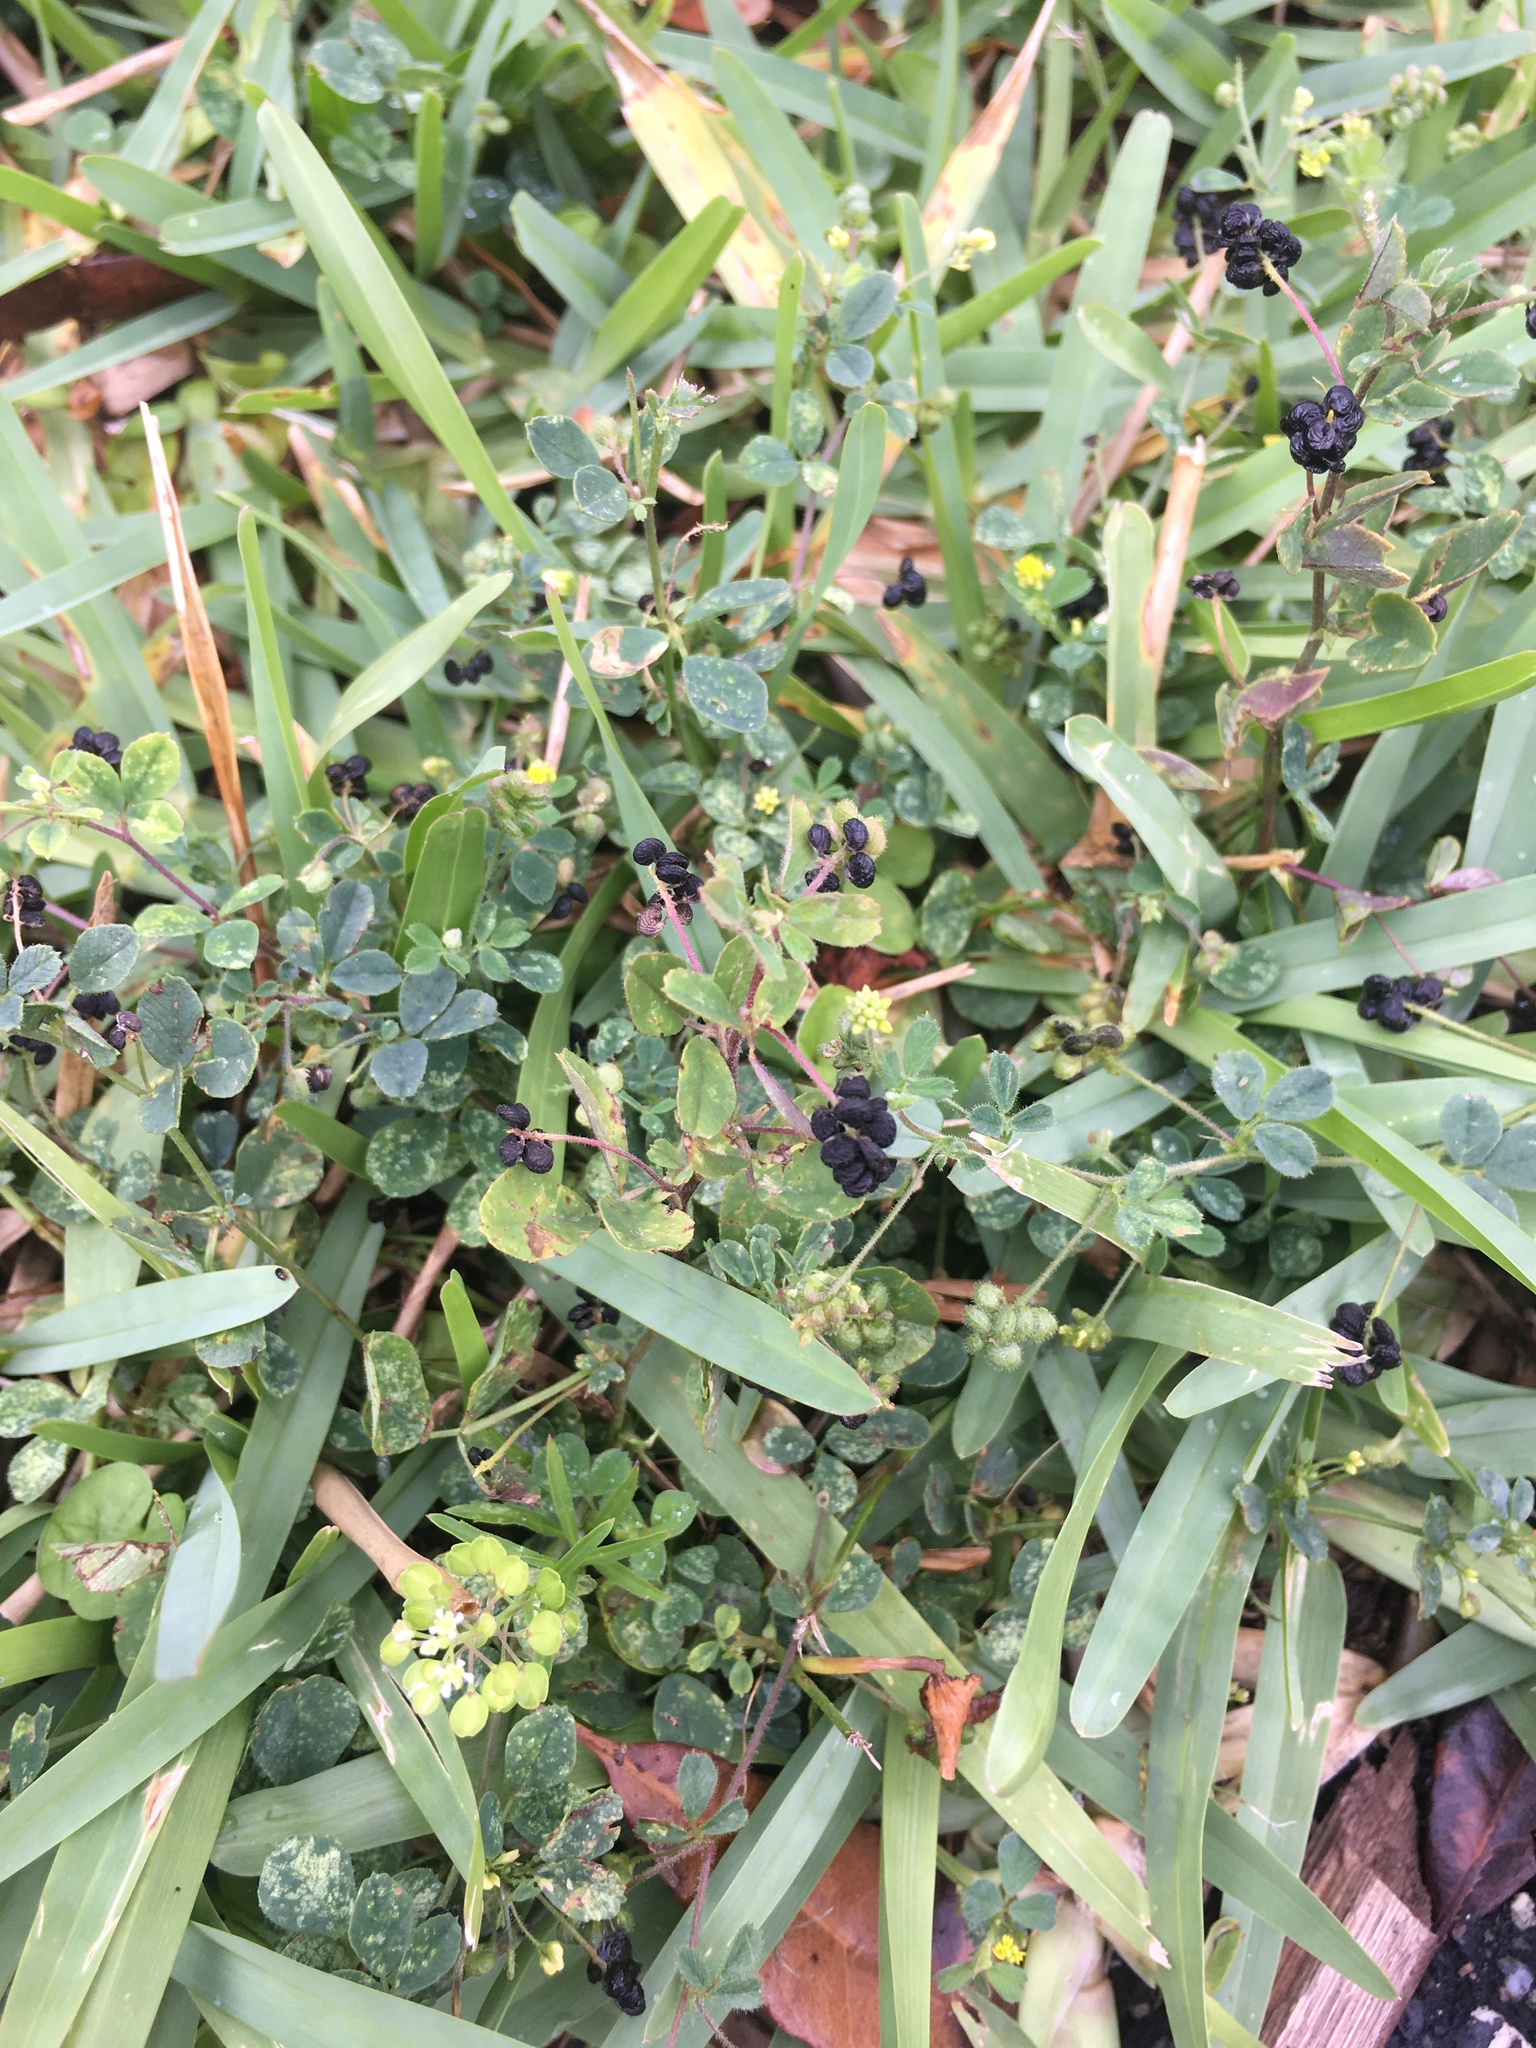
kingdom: Plantae
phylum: Tracheophyta
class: Magnoliopsida
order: Fabales
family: Fabaceae
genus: Medicago
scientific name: Medicago lupulina
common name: Black medick
